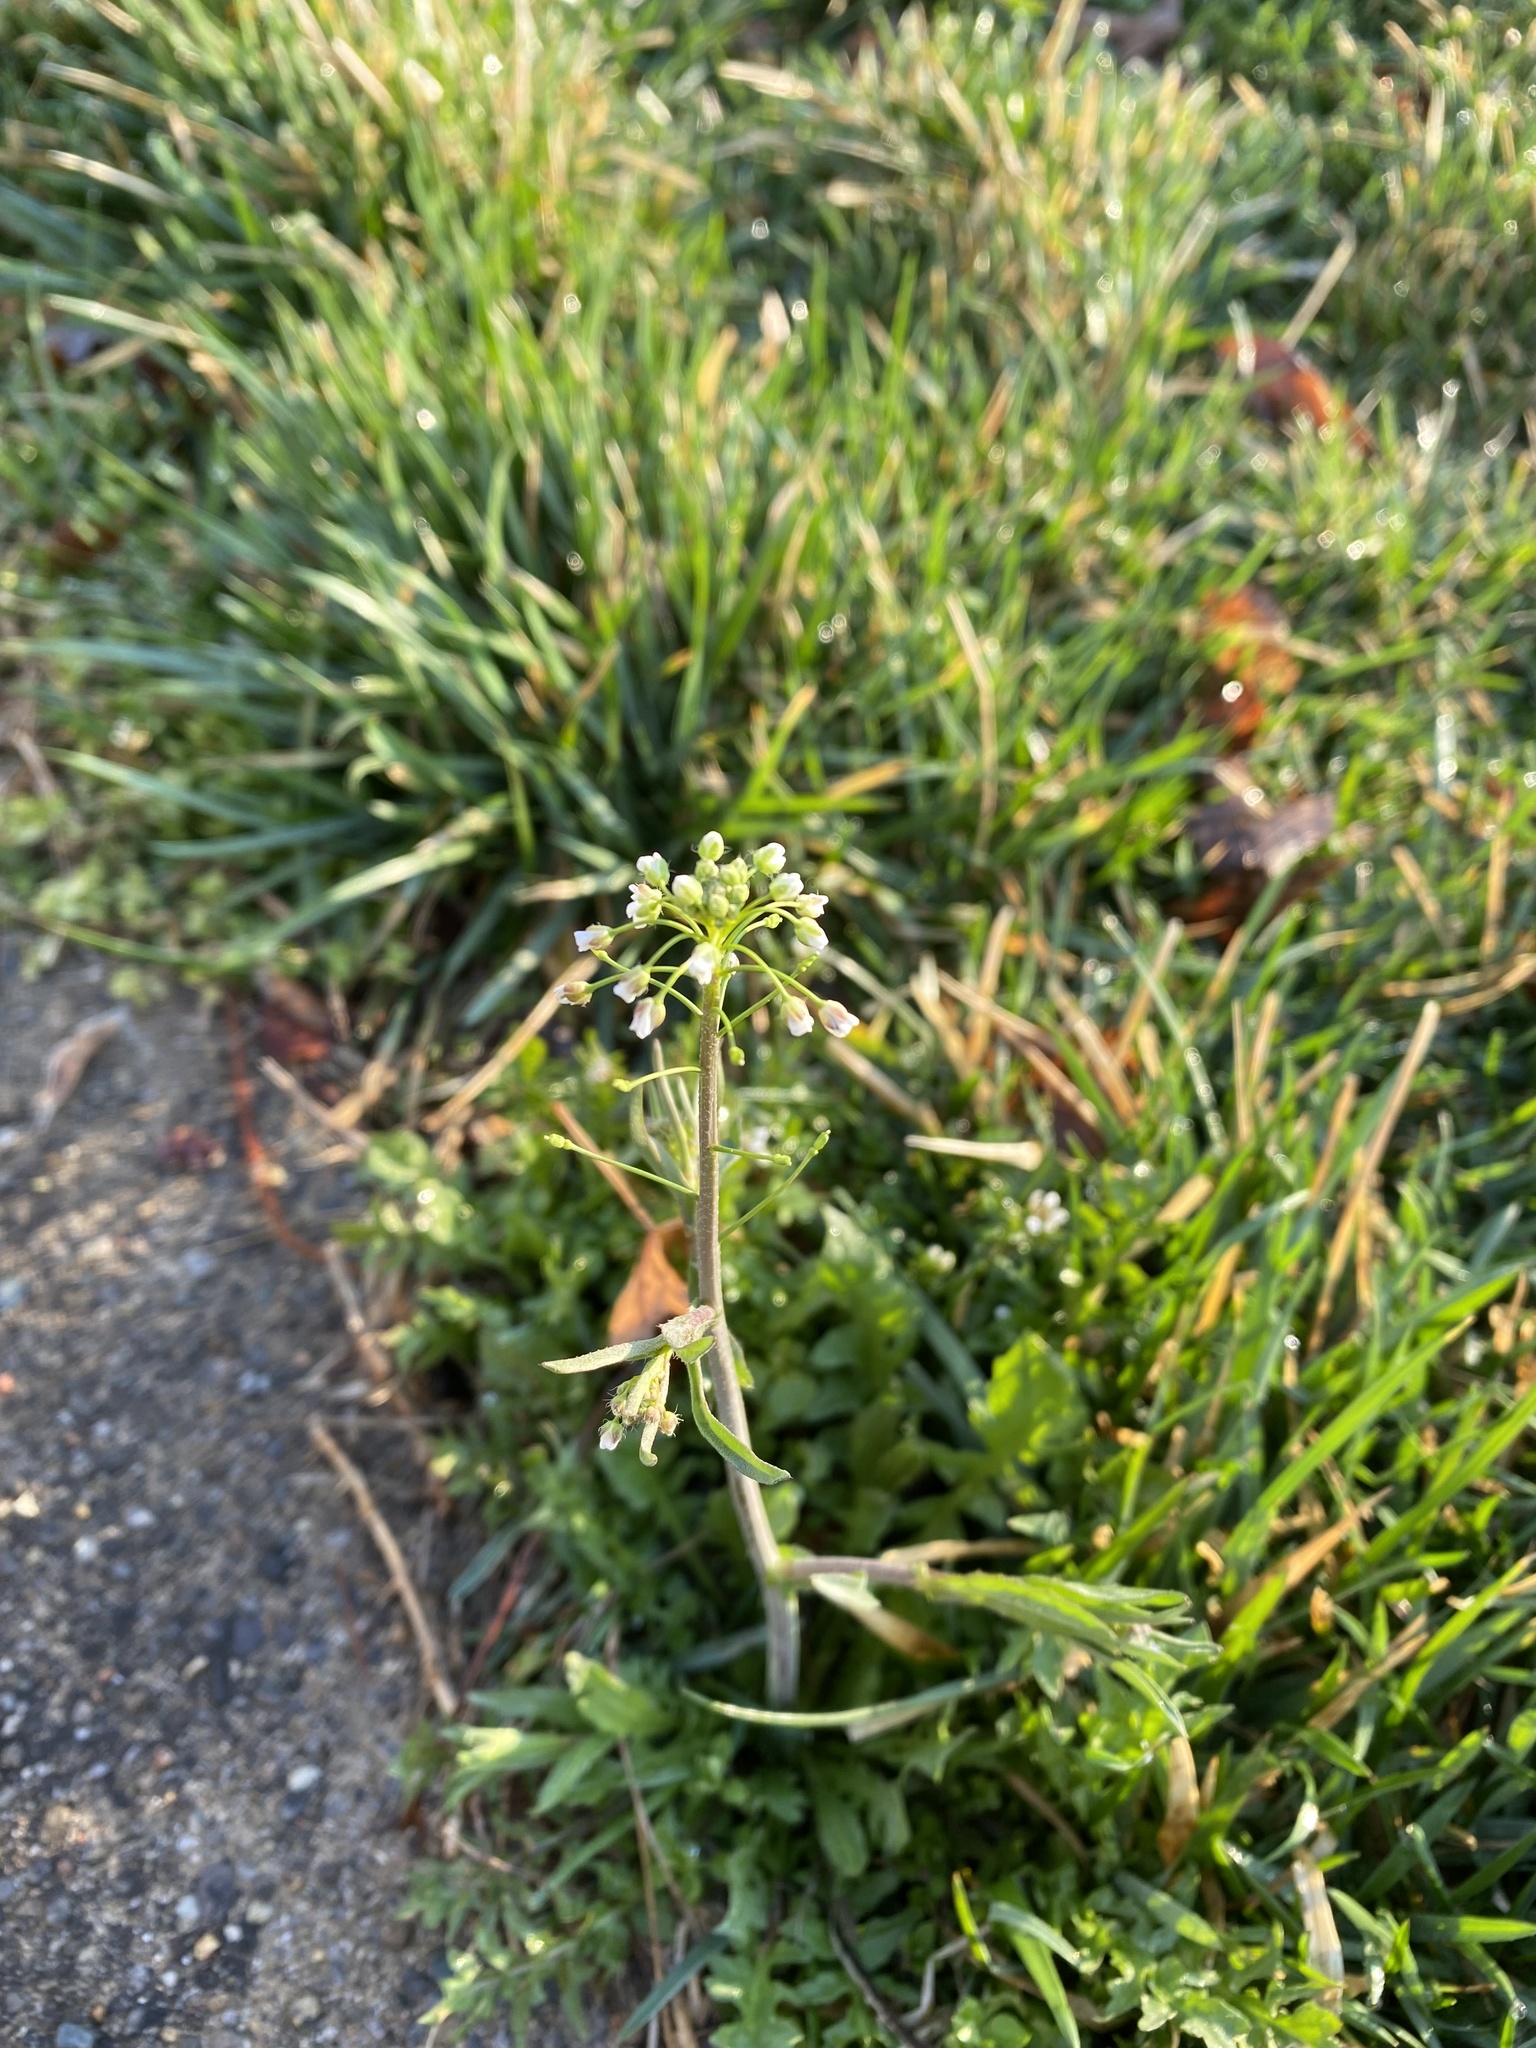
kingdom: Plantae
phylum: Tracheophyta
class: Magnoliopsida
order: Brassicales
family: Brassicaceae
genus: Capsella
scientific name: Capsella bursa-pastoris
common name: Shepherd's purse
